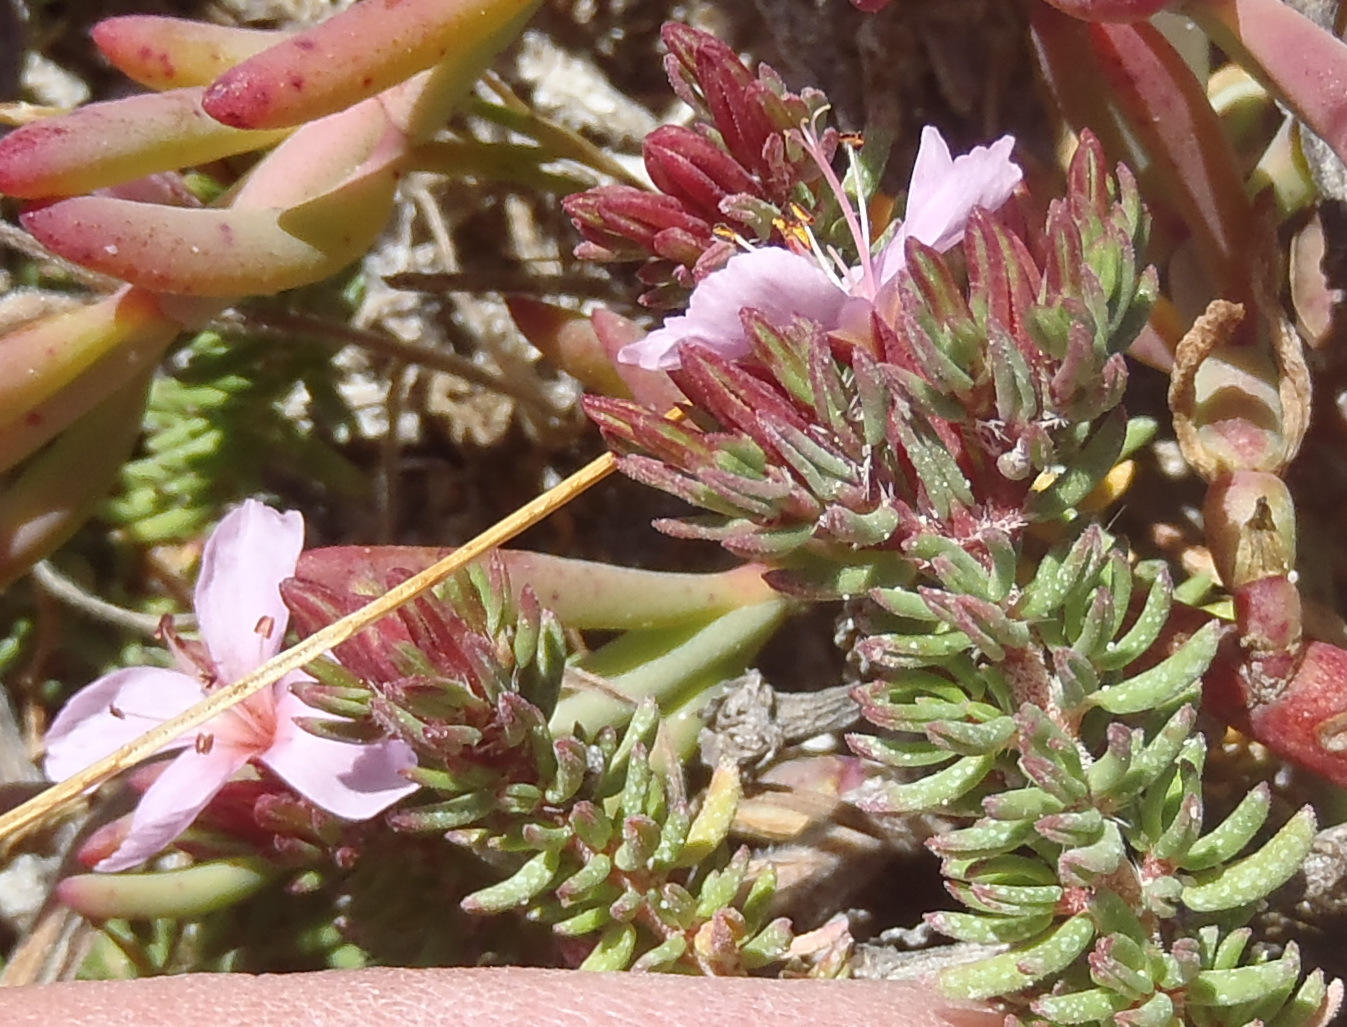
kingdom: Plantae
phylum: Tracheophyta
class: Magnoliopsida
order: Caryophyllales
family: Frankeniaceae
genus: Frankenia
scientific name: Frankenia repens
